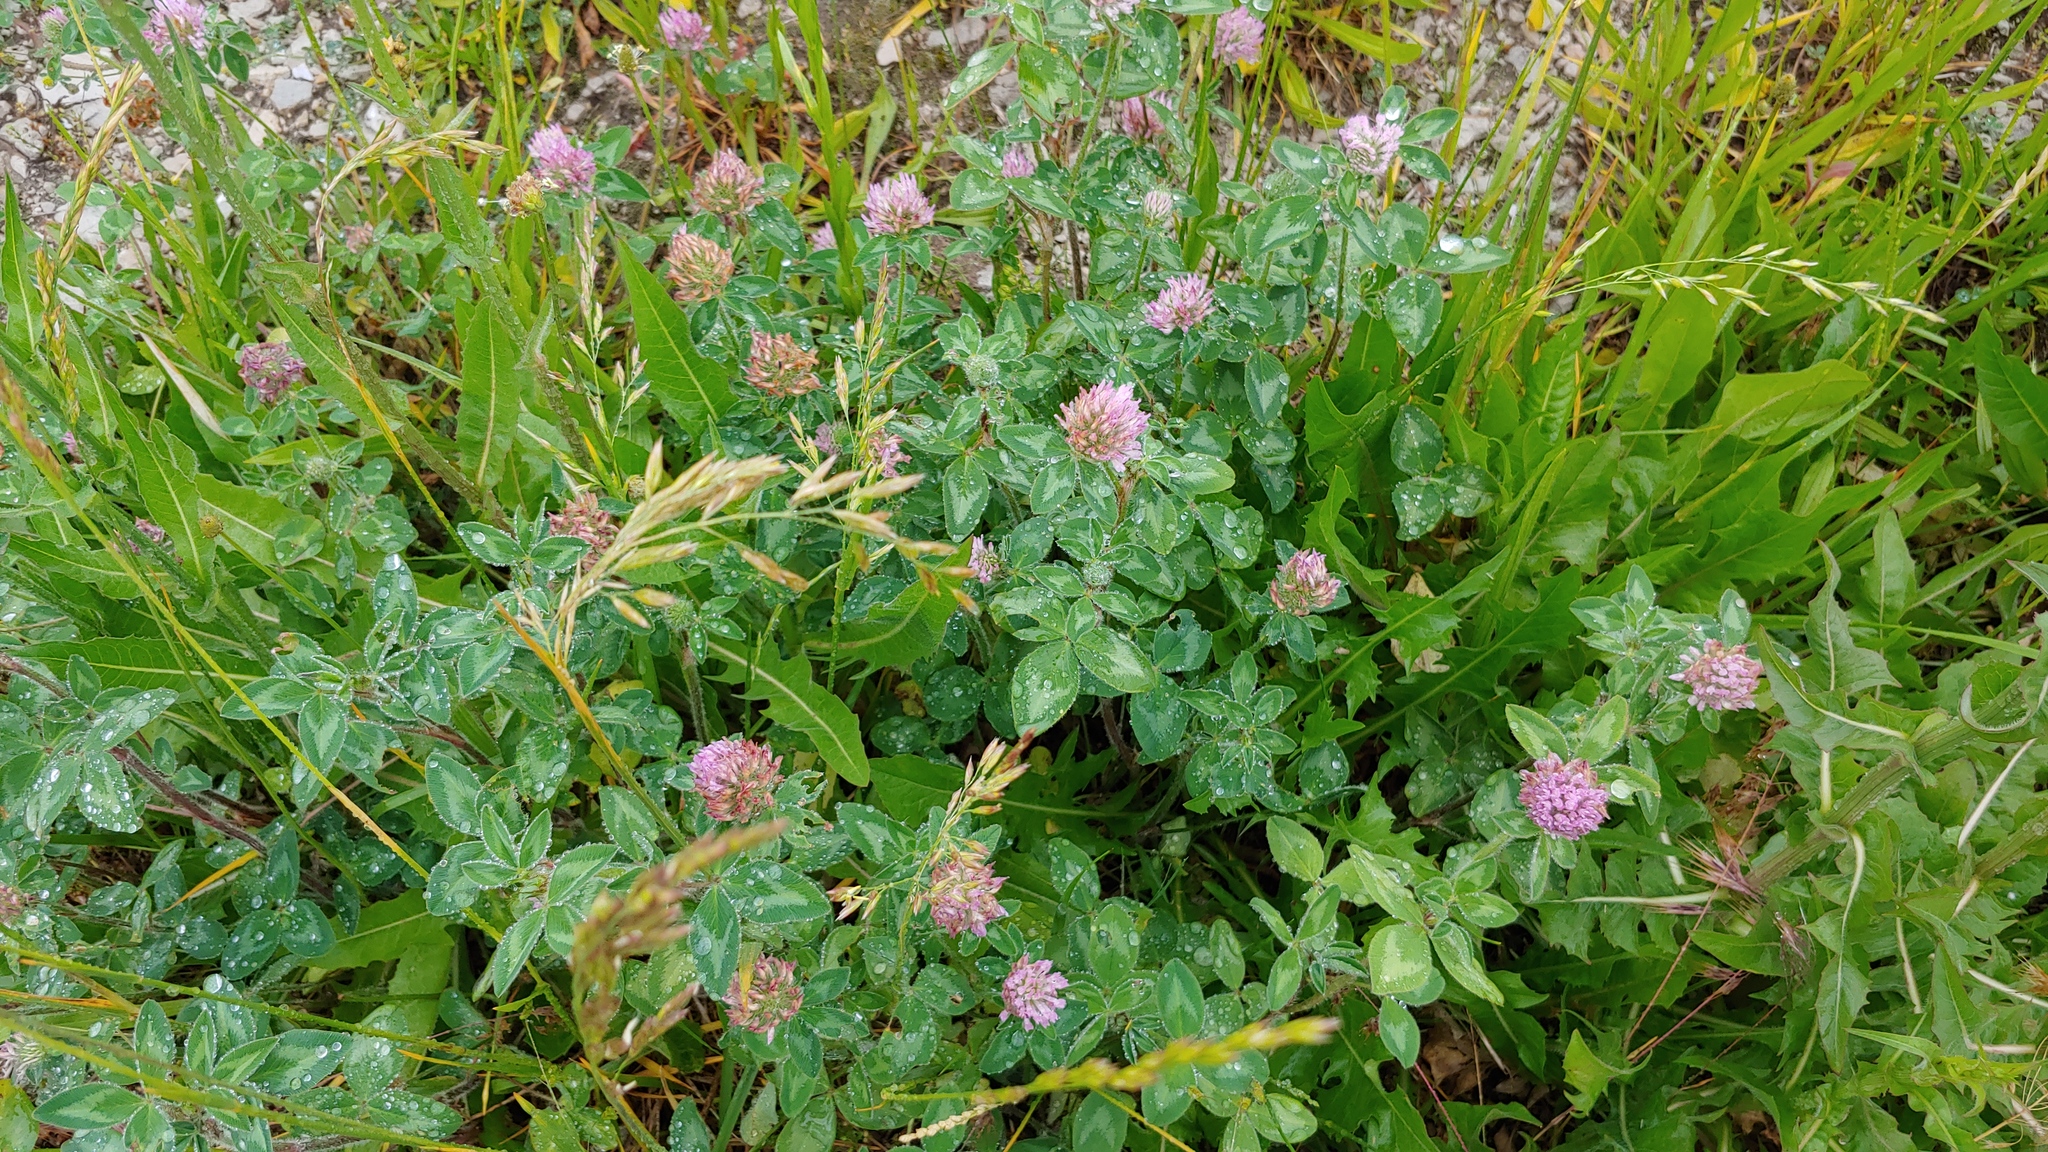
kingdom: Plantae
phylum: Tracheophyta
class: Magnoliopsida
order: Fabales
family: Fabaceae
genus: Trifolium
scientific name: Trifolium pratense
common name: Red clover
